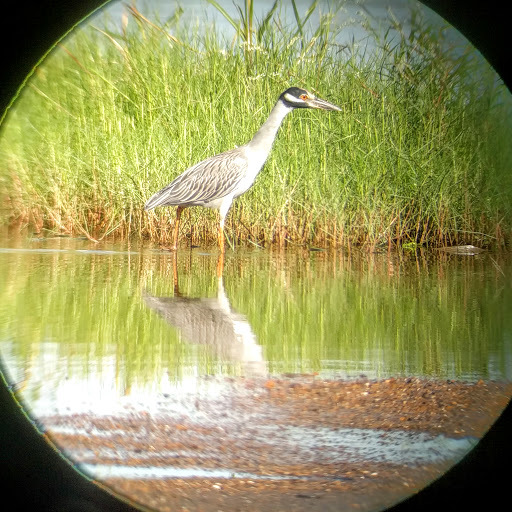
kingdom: Animalia
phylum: Chordata
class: Aves
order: Pelecaniformes
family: Ardeidae
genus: Nyctanassa
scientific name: Nyctanassa violacea
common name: Yellow-crowned night heron
